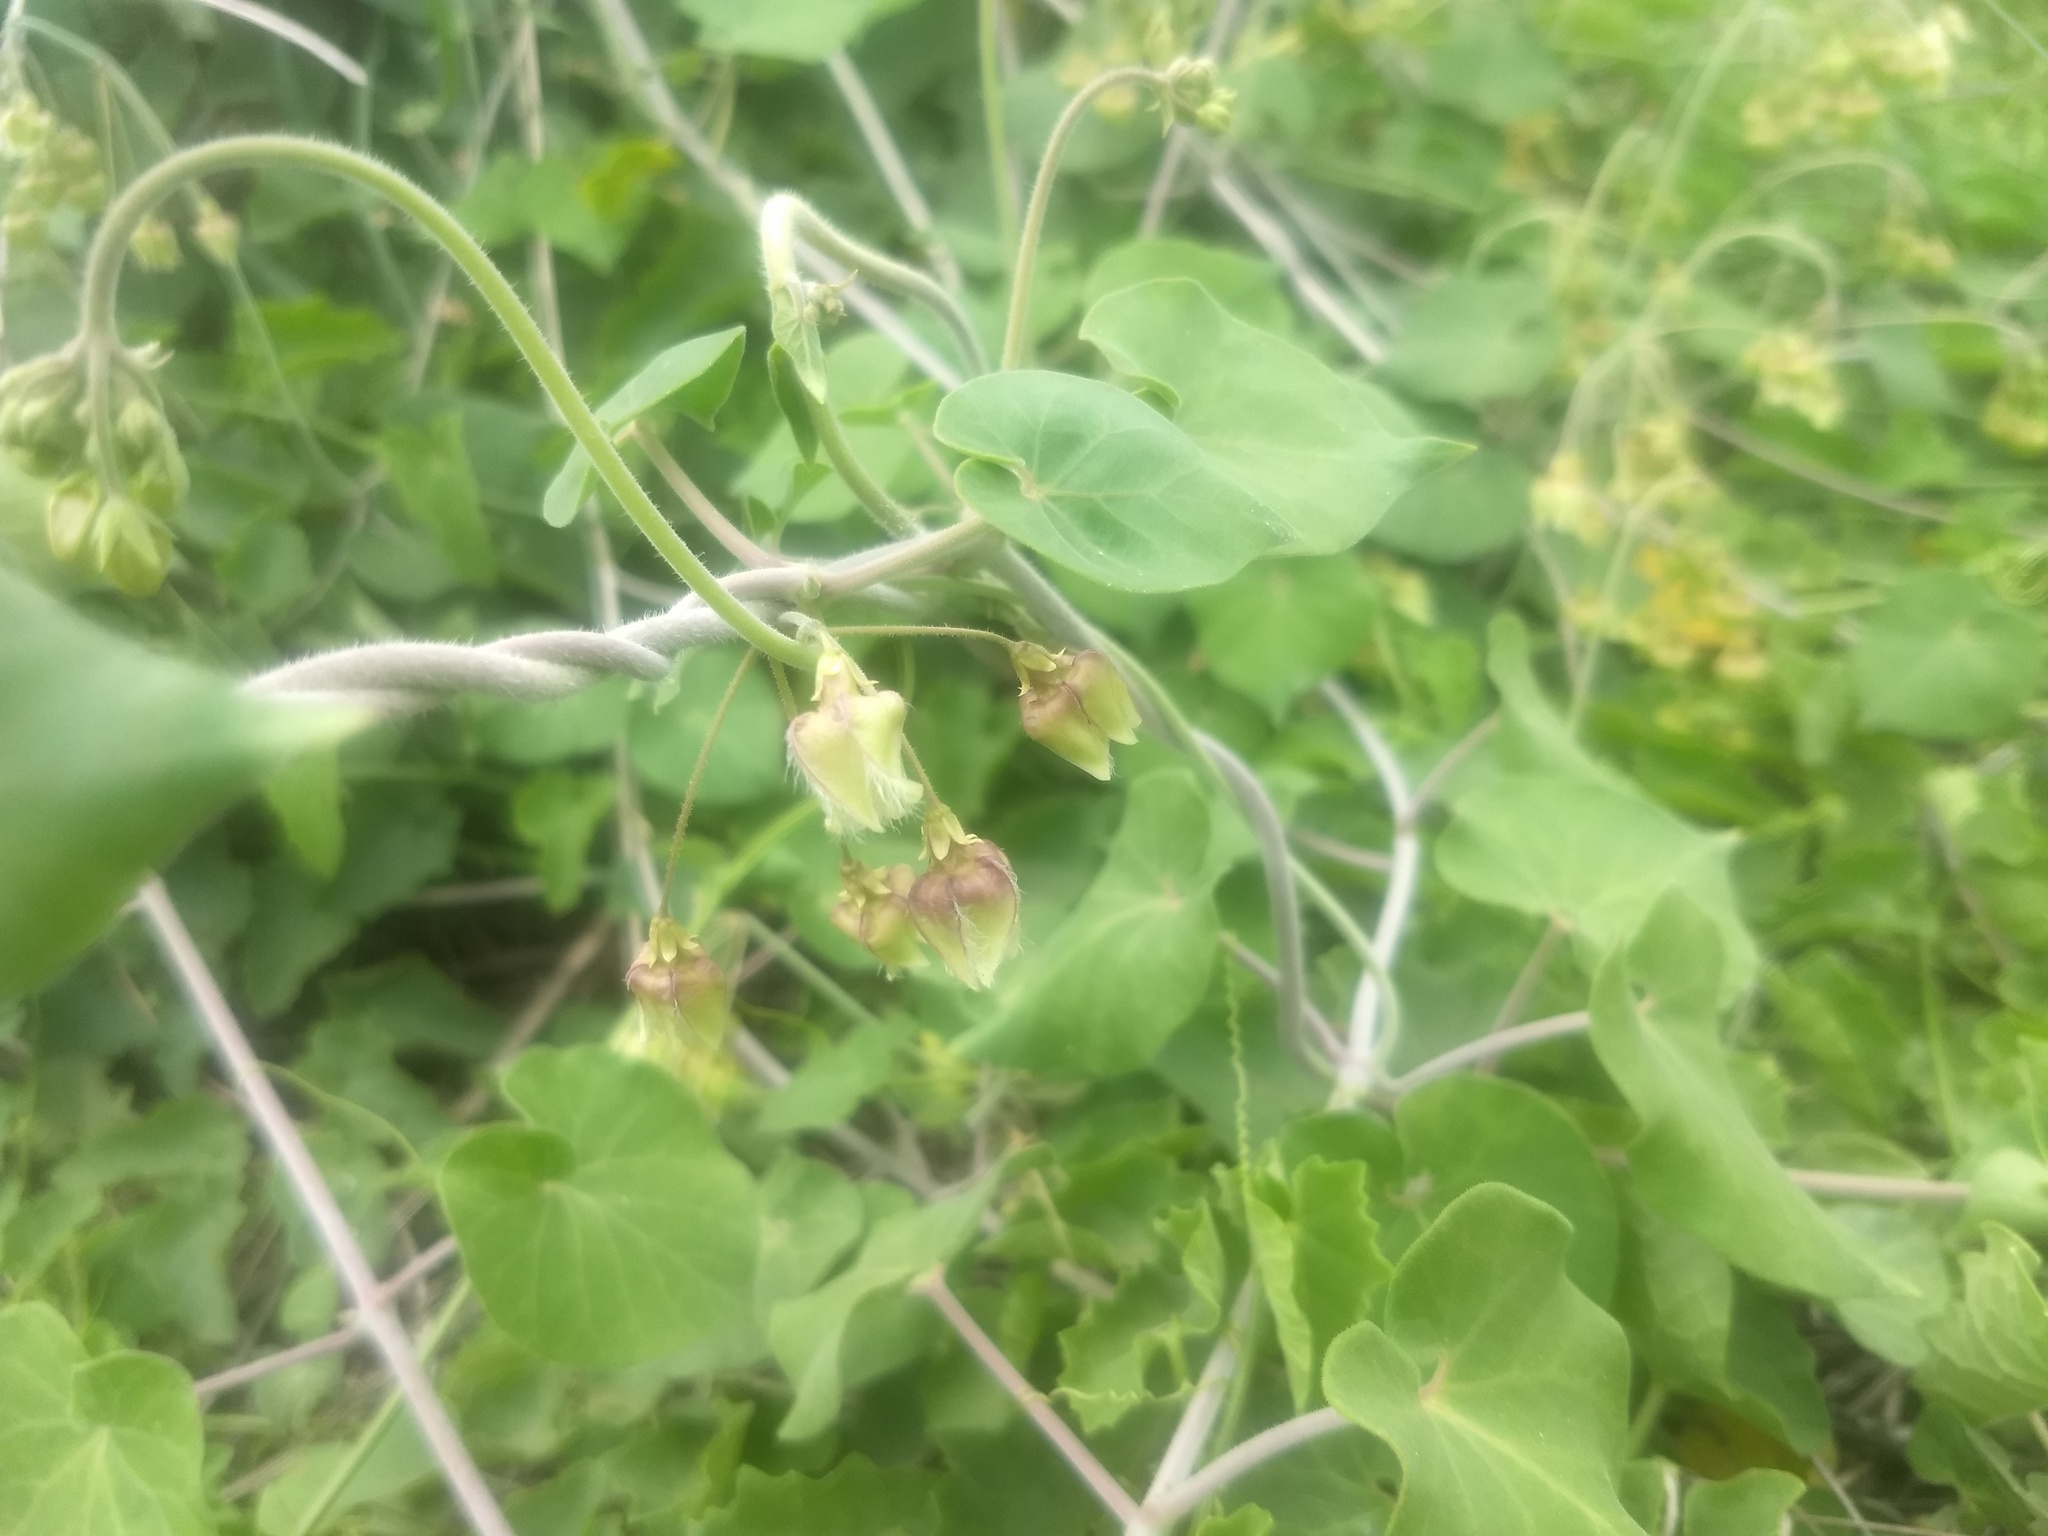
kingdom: Plantae
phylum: Tracheophyta
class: Magnoliopsida
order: Gentianales
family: Apocynaceae
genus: Pergularia
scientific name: Pergularia daemia
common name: Trellis-vine
